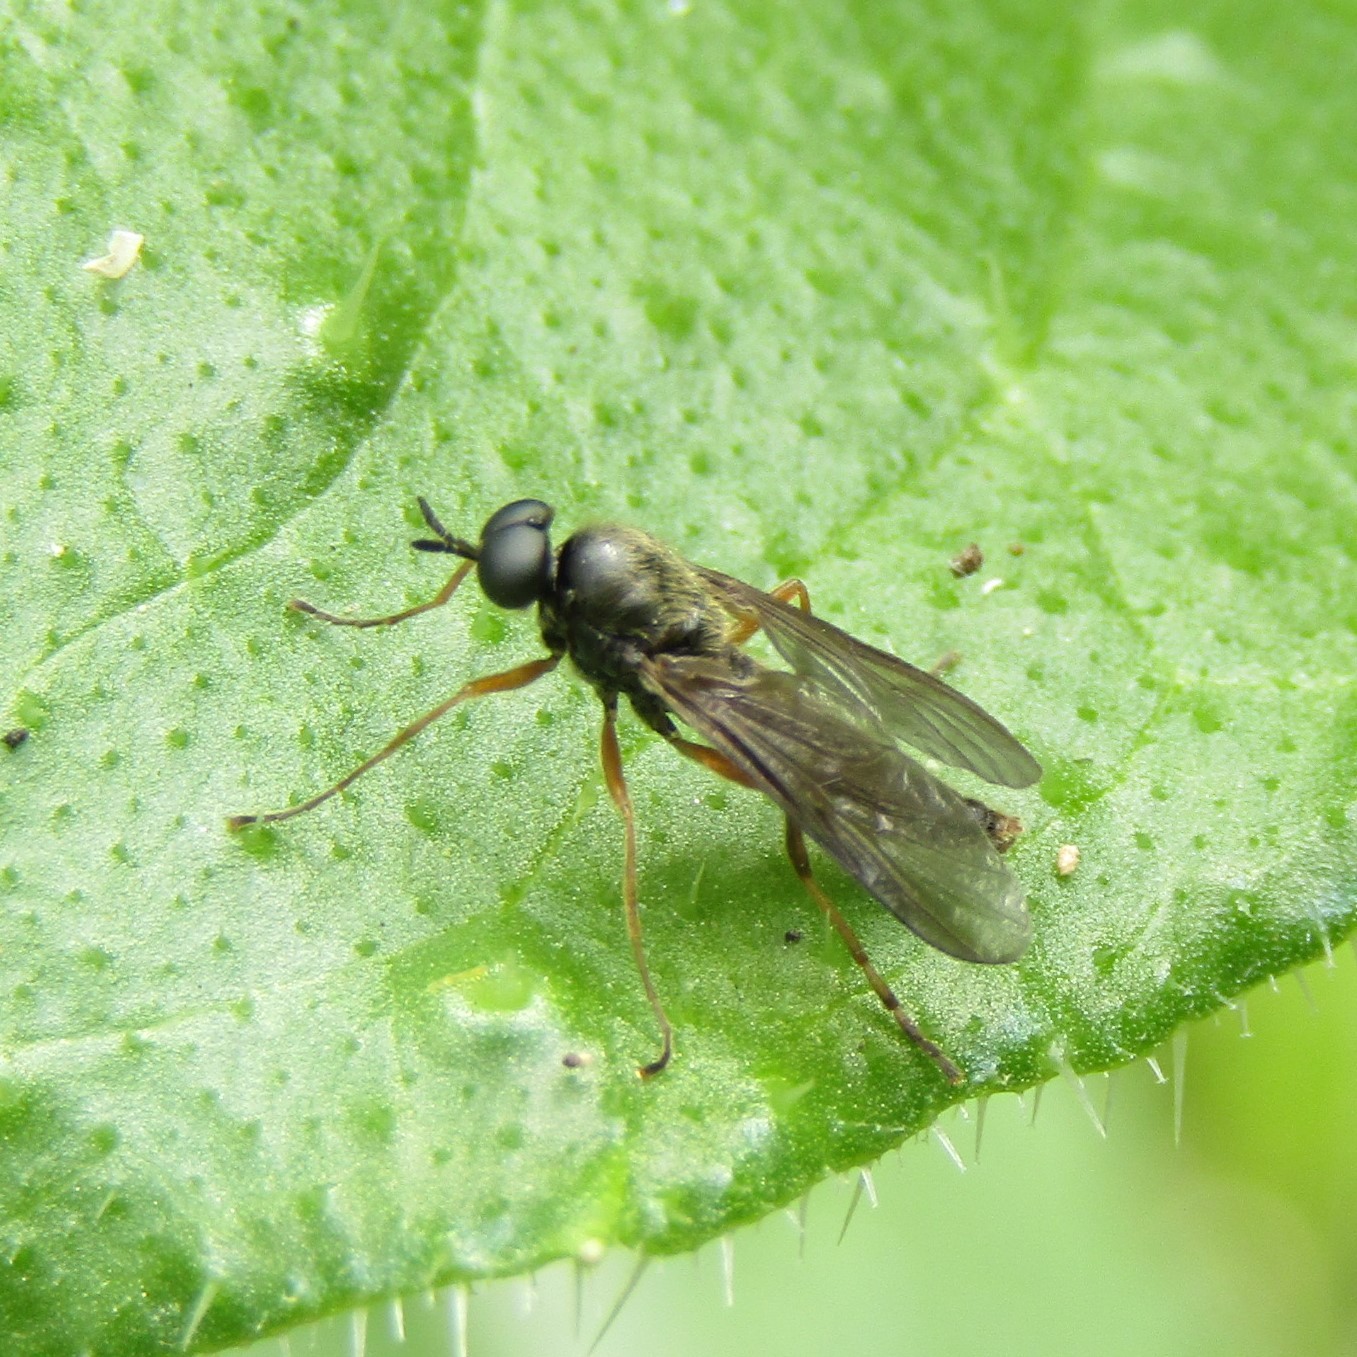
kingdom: Animalia
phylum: Arthropoda
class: Insecta
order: Diptera
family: Stratiomyidae
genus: Inopus
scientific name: Inopus rubriceps
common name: Soldier fly
